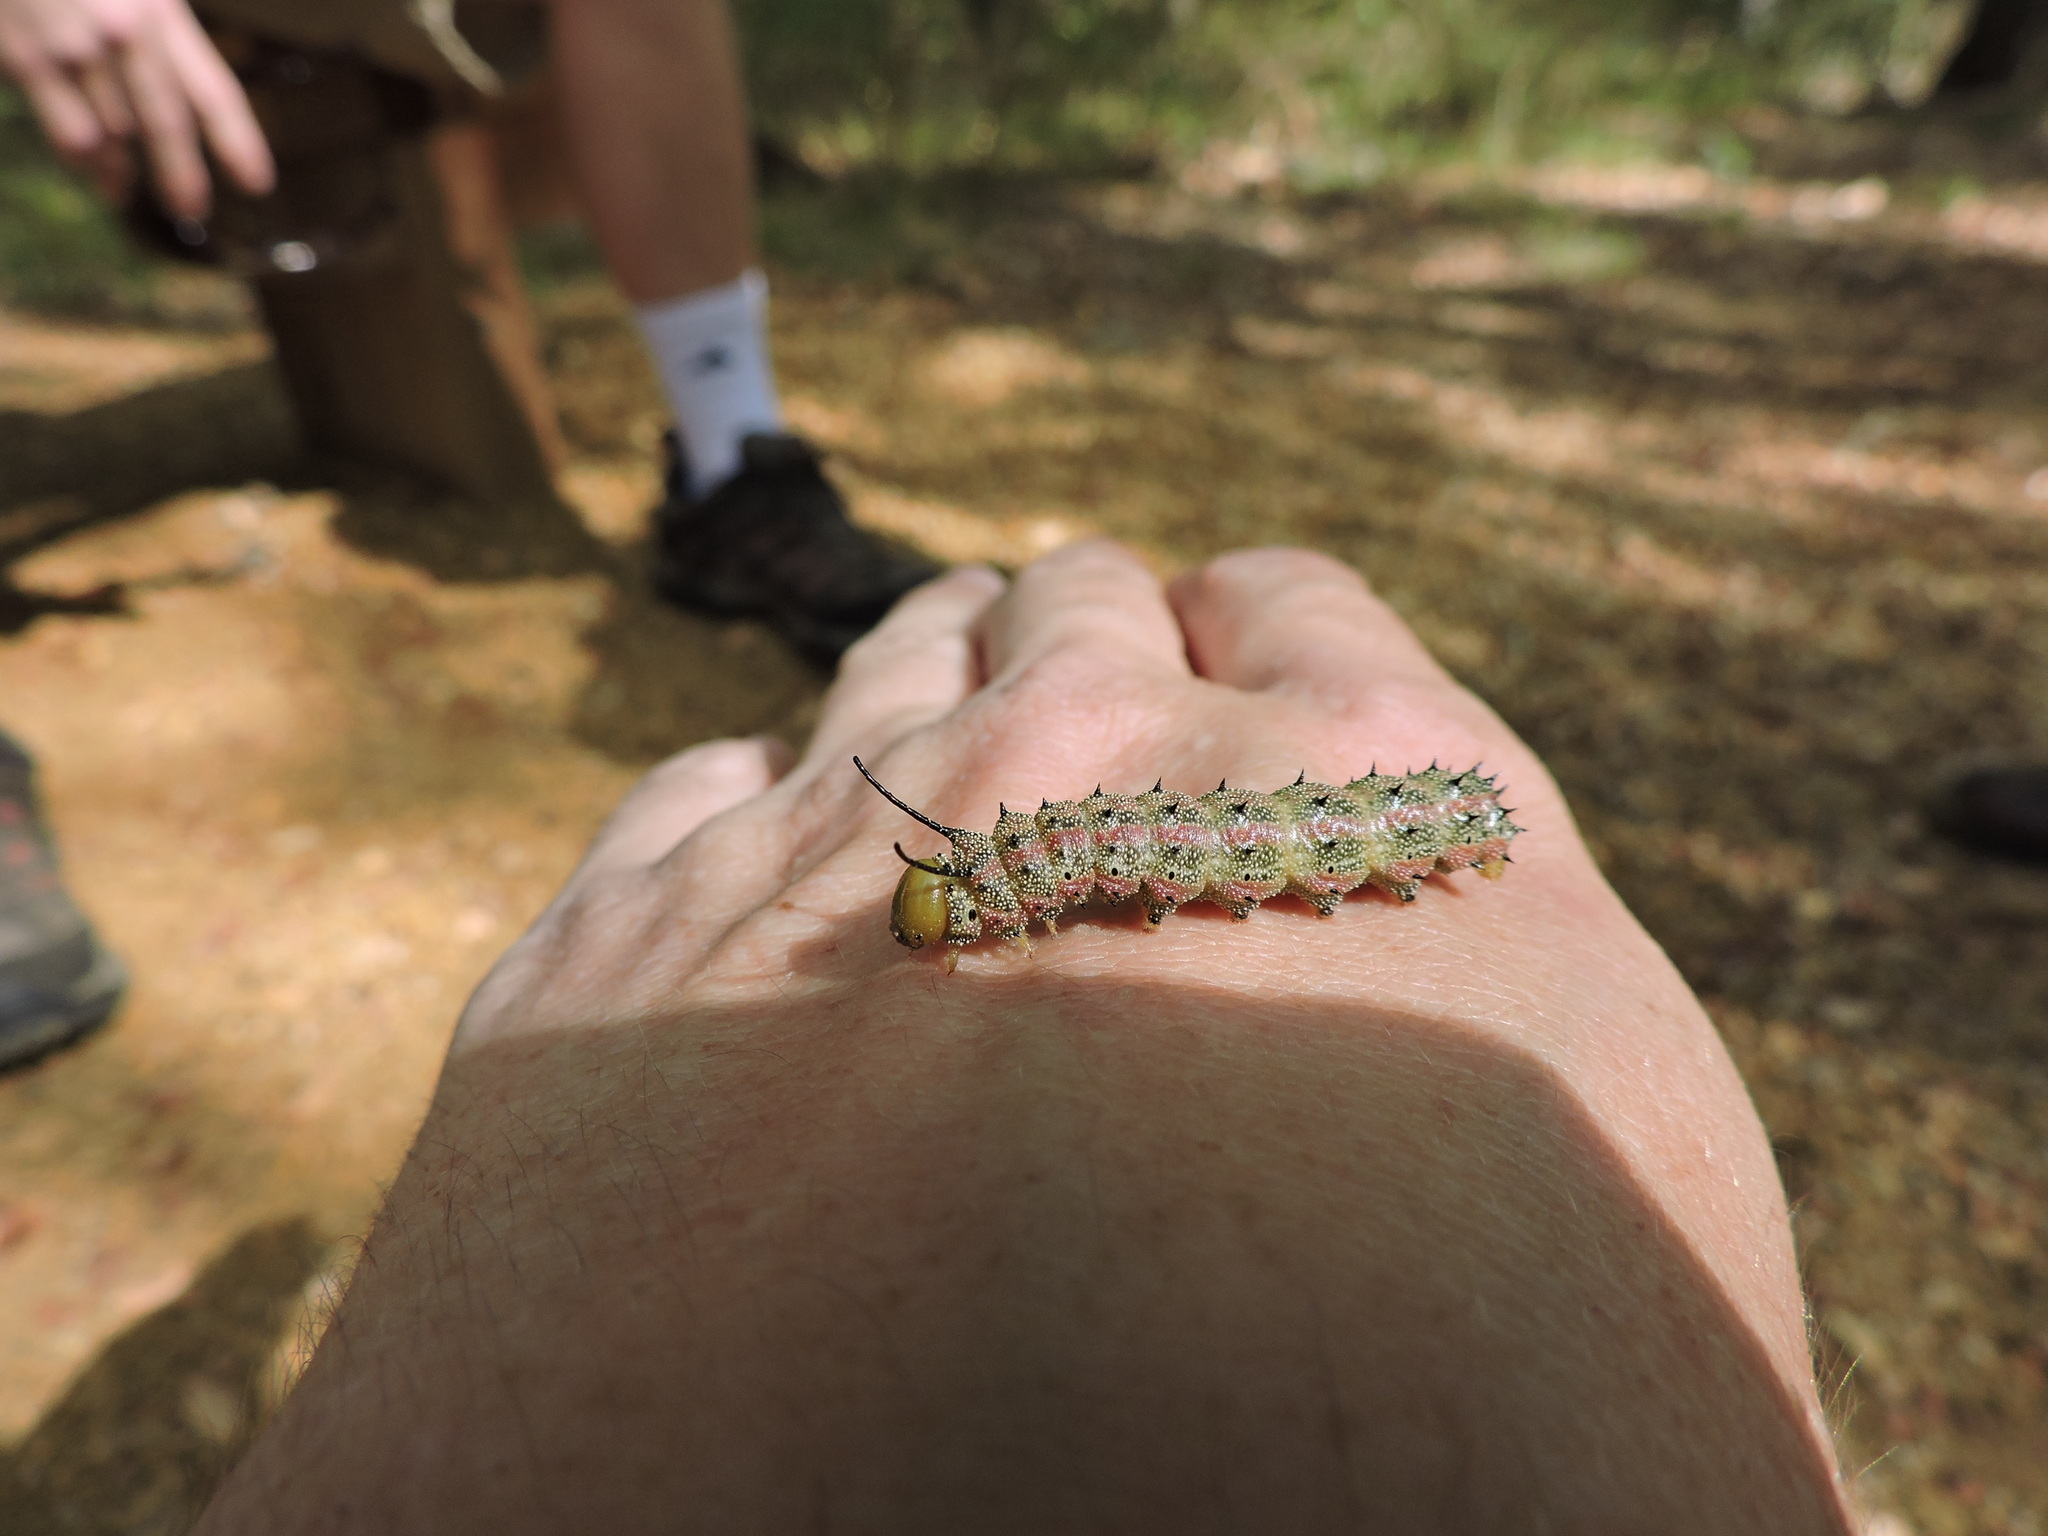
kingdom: Animalia
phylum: Arthropoda
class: Insecta
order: Lepidoptera
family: Saturniidae
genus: Anisota
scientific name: Anisota virginiensis
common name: Pink striped oakworm moth
